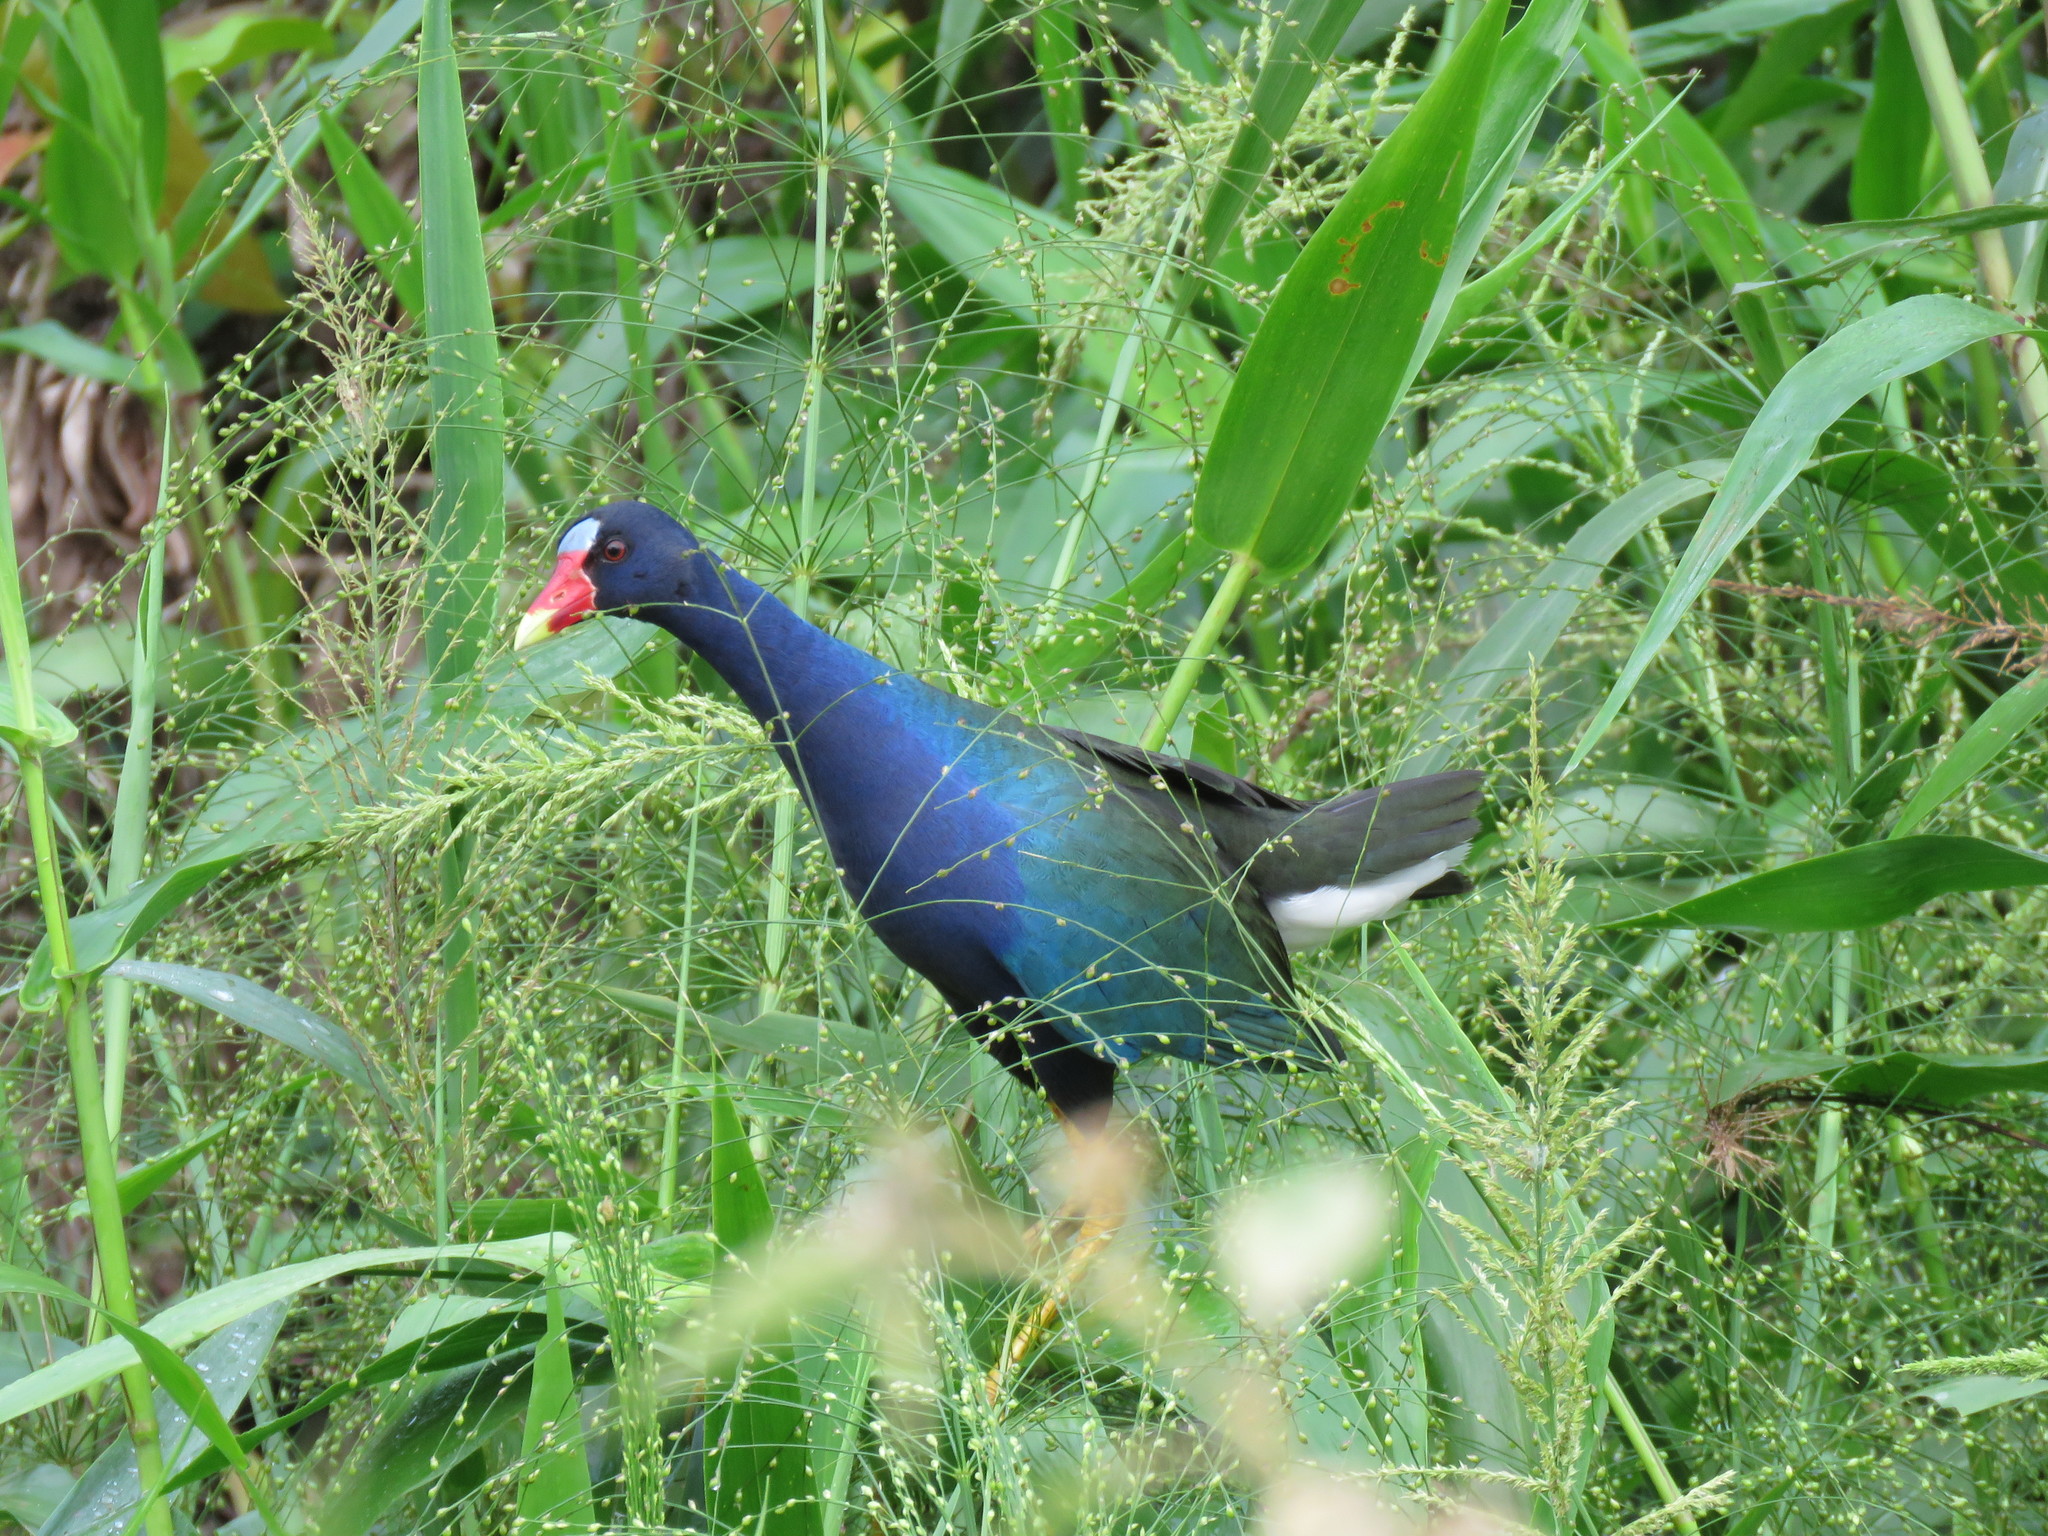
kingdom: Animalia
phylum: Chordata
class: Aves
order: Gruiformes
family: Rallidae
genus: Porphyrio
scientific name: Porphyrio martinica
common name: Purple gallinule
